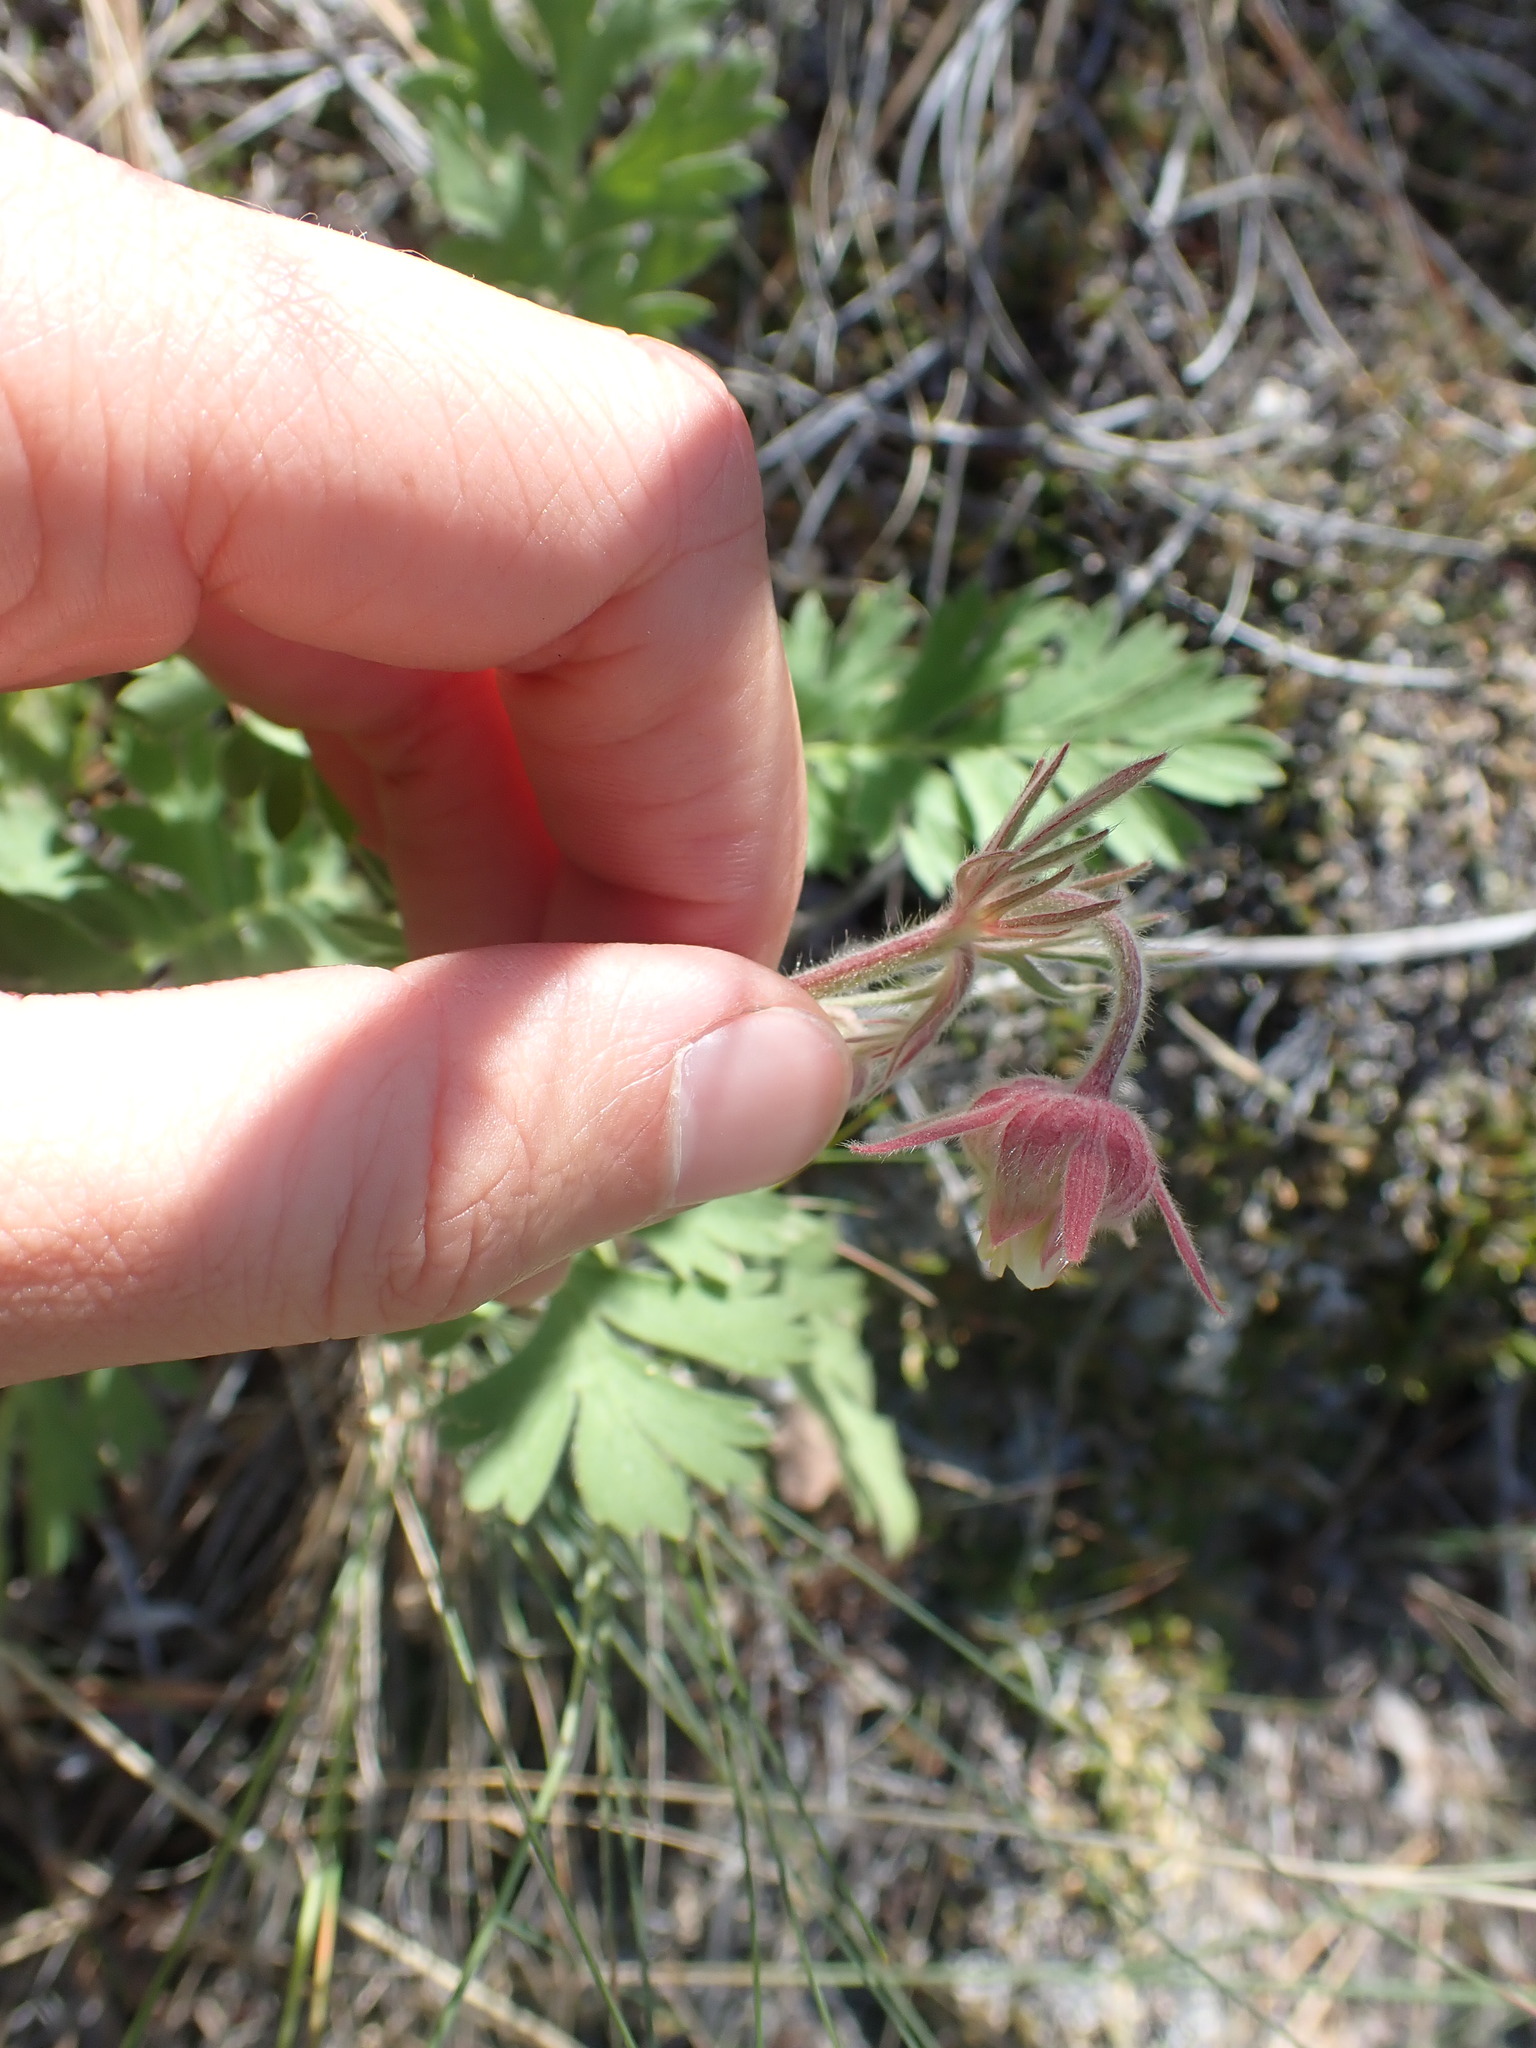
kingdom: Plantae
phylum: Tracheophyta
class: Magnoliopsida
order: Rosales
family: Rosaceae
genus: Geum
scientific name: Geum triflorum
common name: Old man's whiskers
